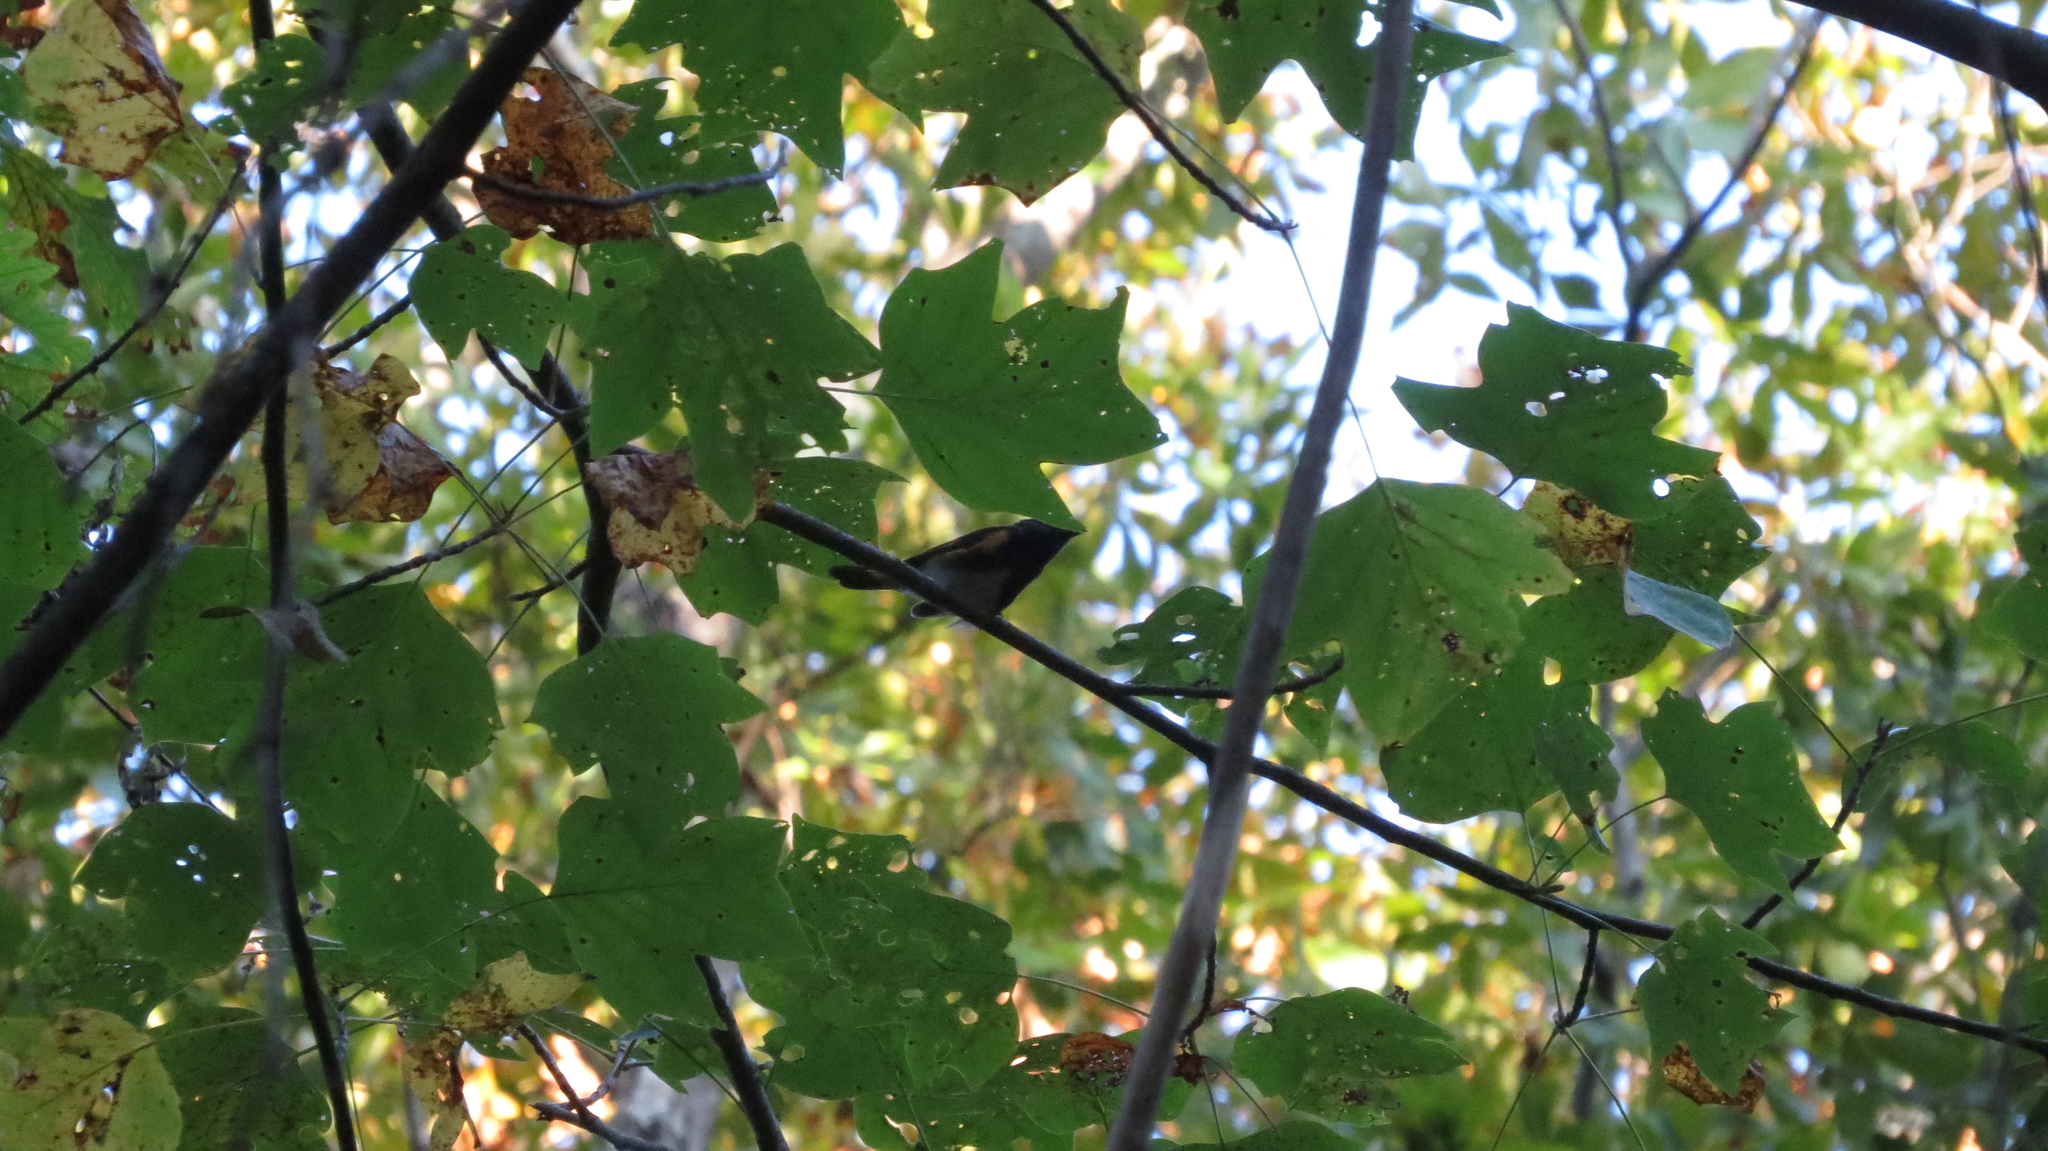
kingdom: Animalia
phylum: Chordata
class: Aves
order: Passeriformes
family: Parulidae
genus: Setophaga
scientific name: Setophaga ruticilla
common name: American redstart
